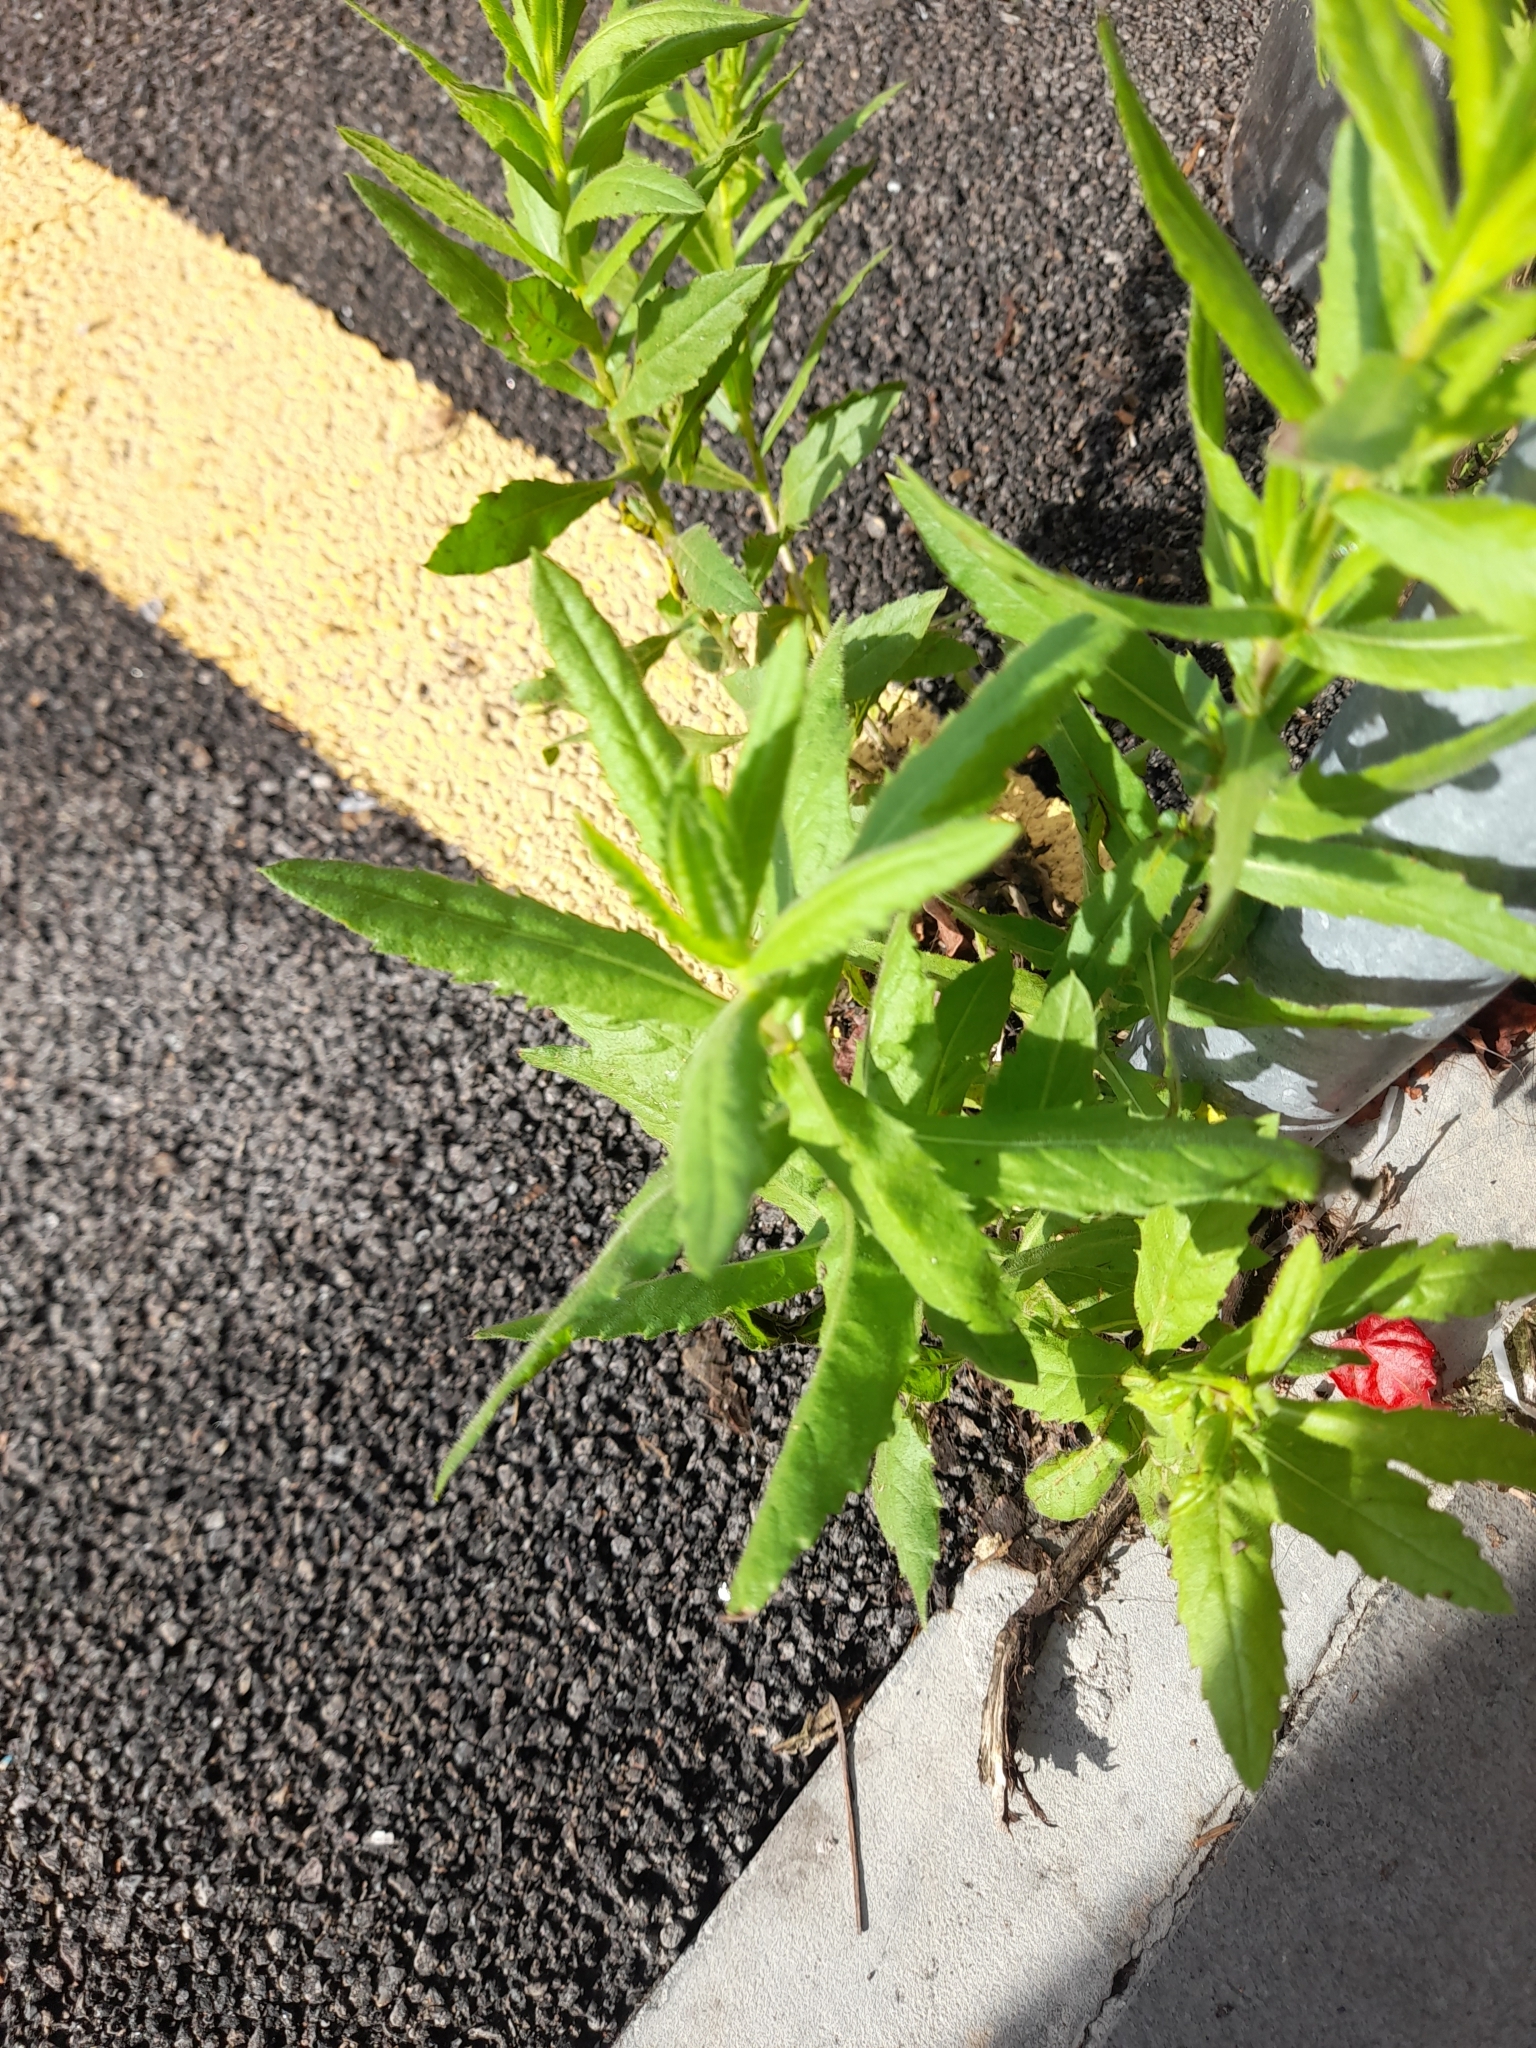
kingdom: Plantae
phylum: Tracheophyta
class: Magnoliopsida
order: Asterales
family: Asteraceae
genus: Dittrichia
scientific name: Dittrichia viscosa
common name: Woody fleabane
